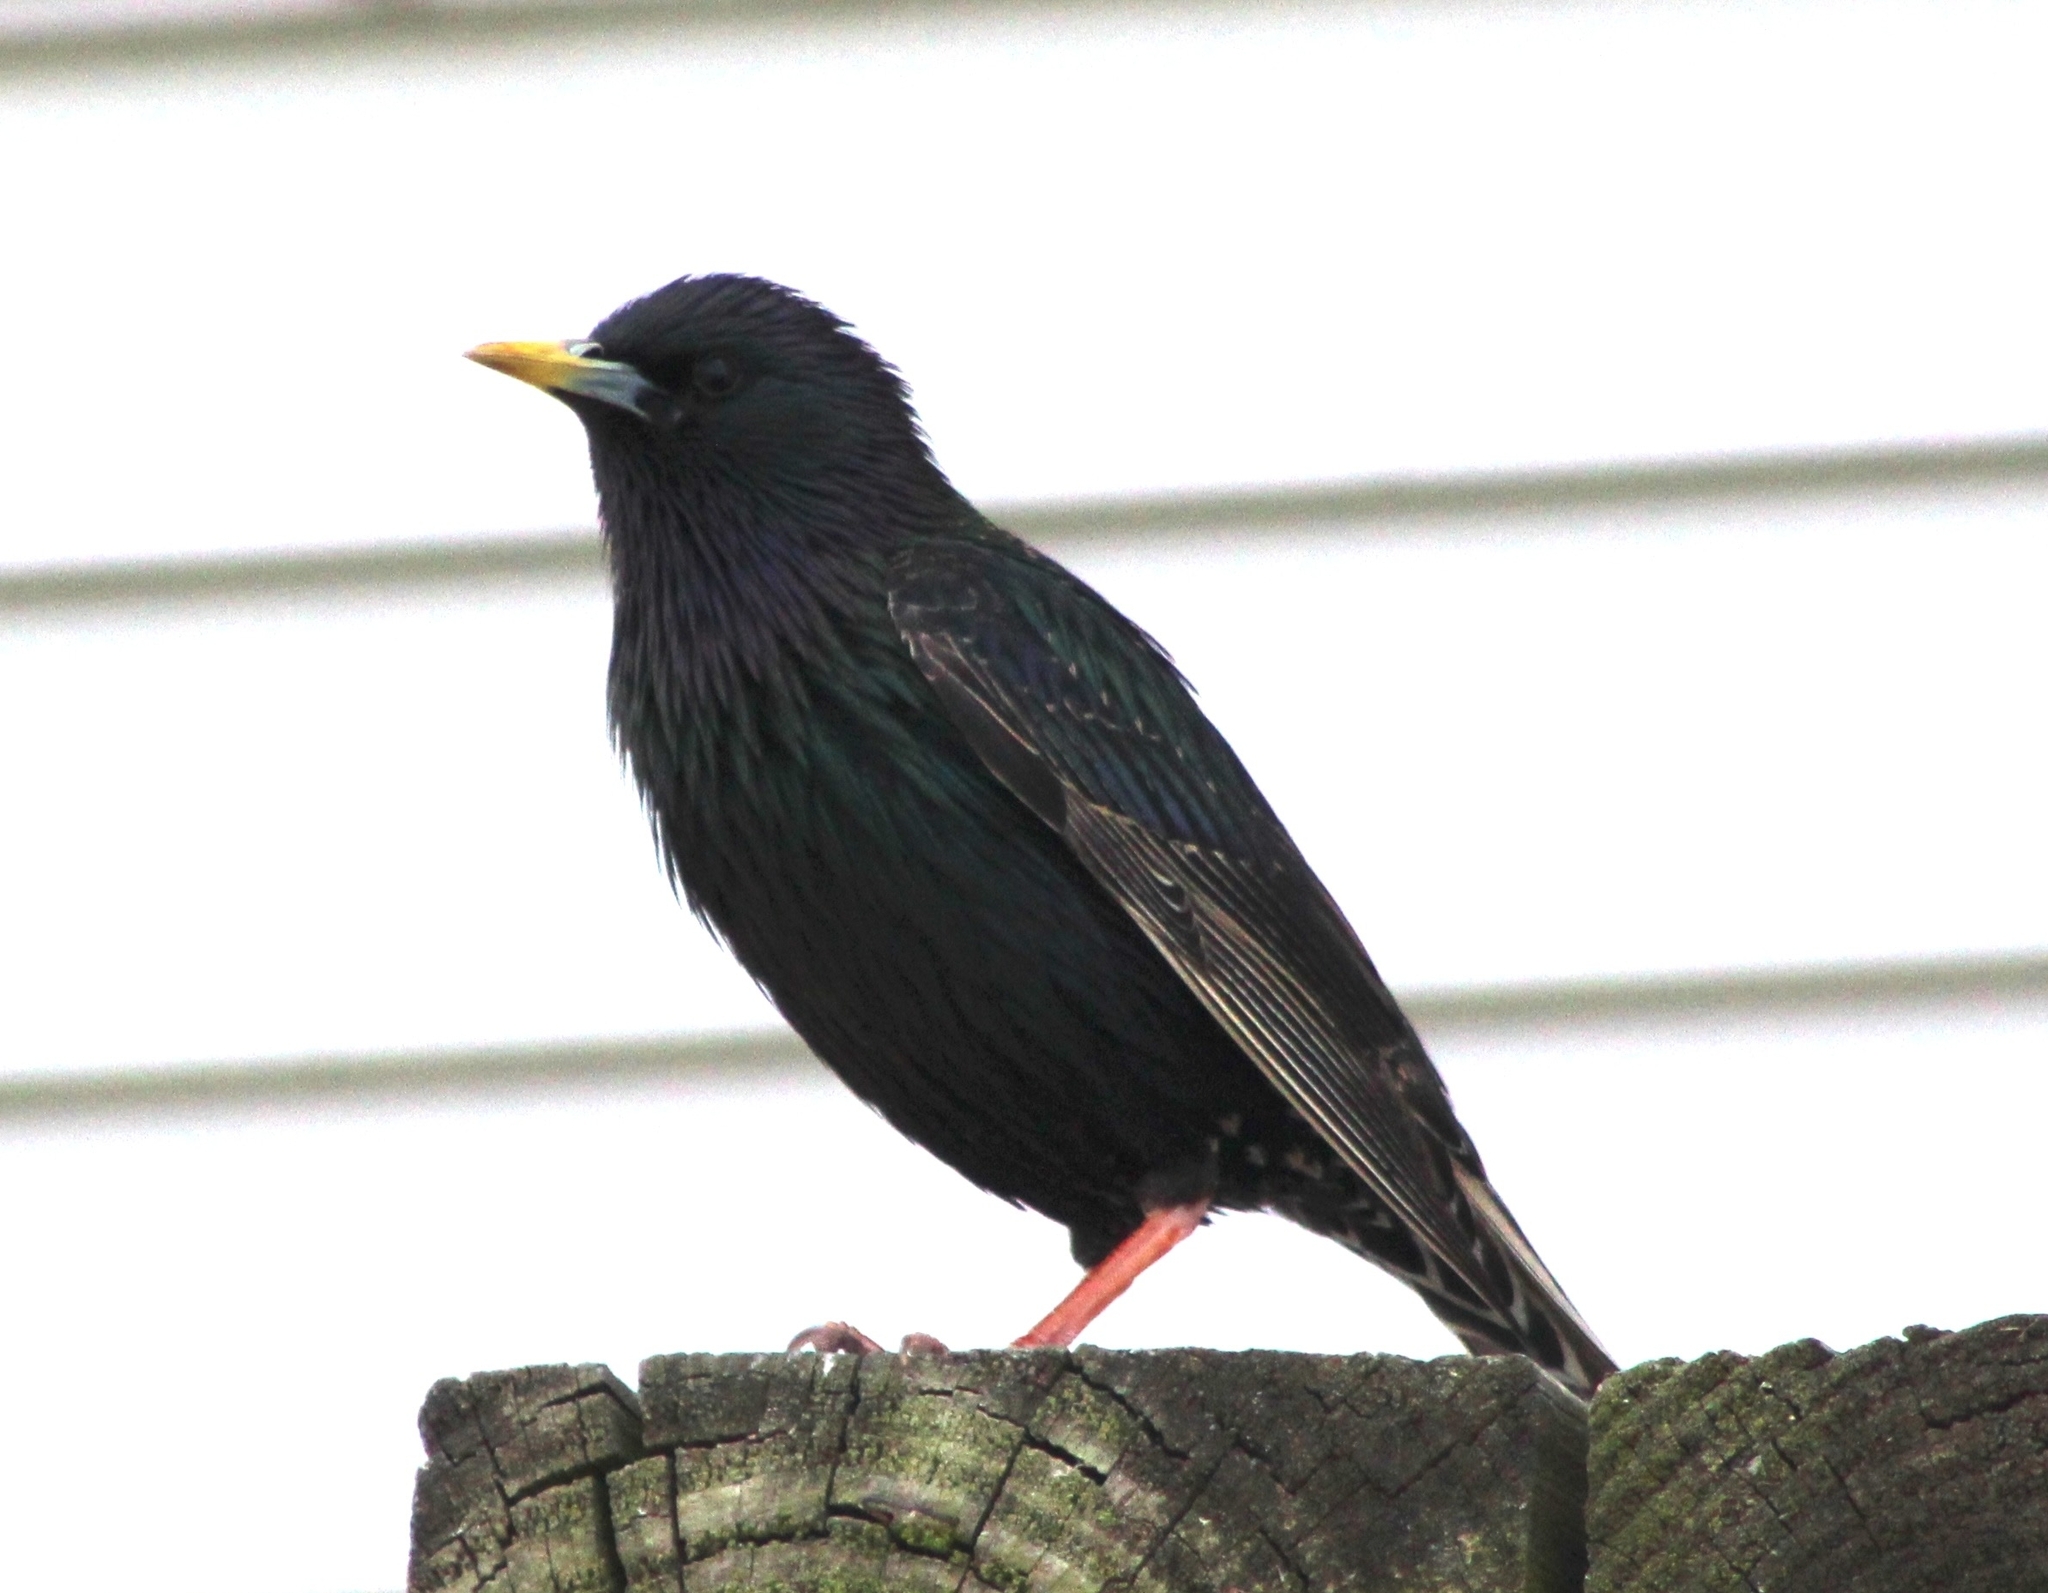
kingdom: Animalia
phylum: Chordata
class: Aves
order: Passeriformes
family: Sturnidae
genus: Sturnus
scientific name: Sturnus vulgaris
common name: Common starling
